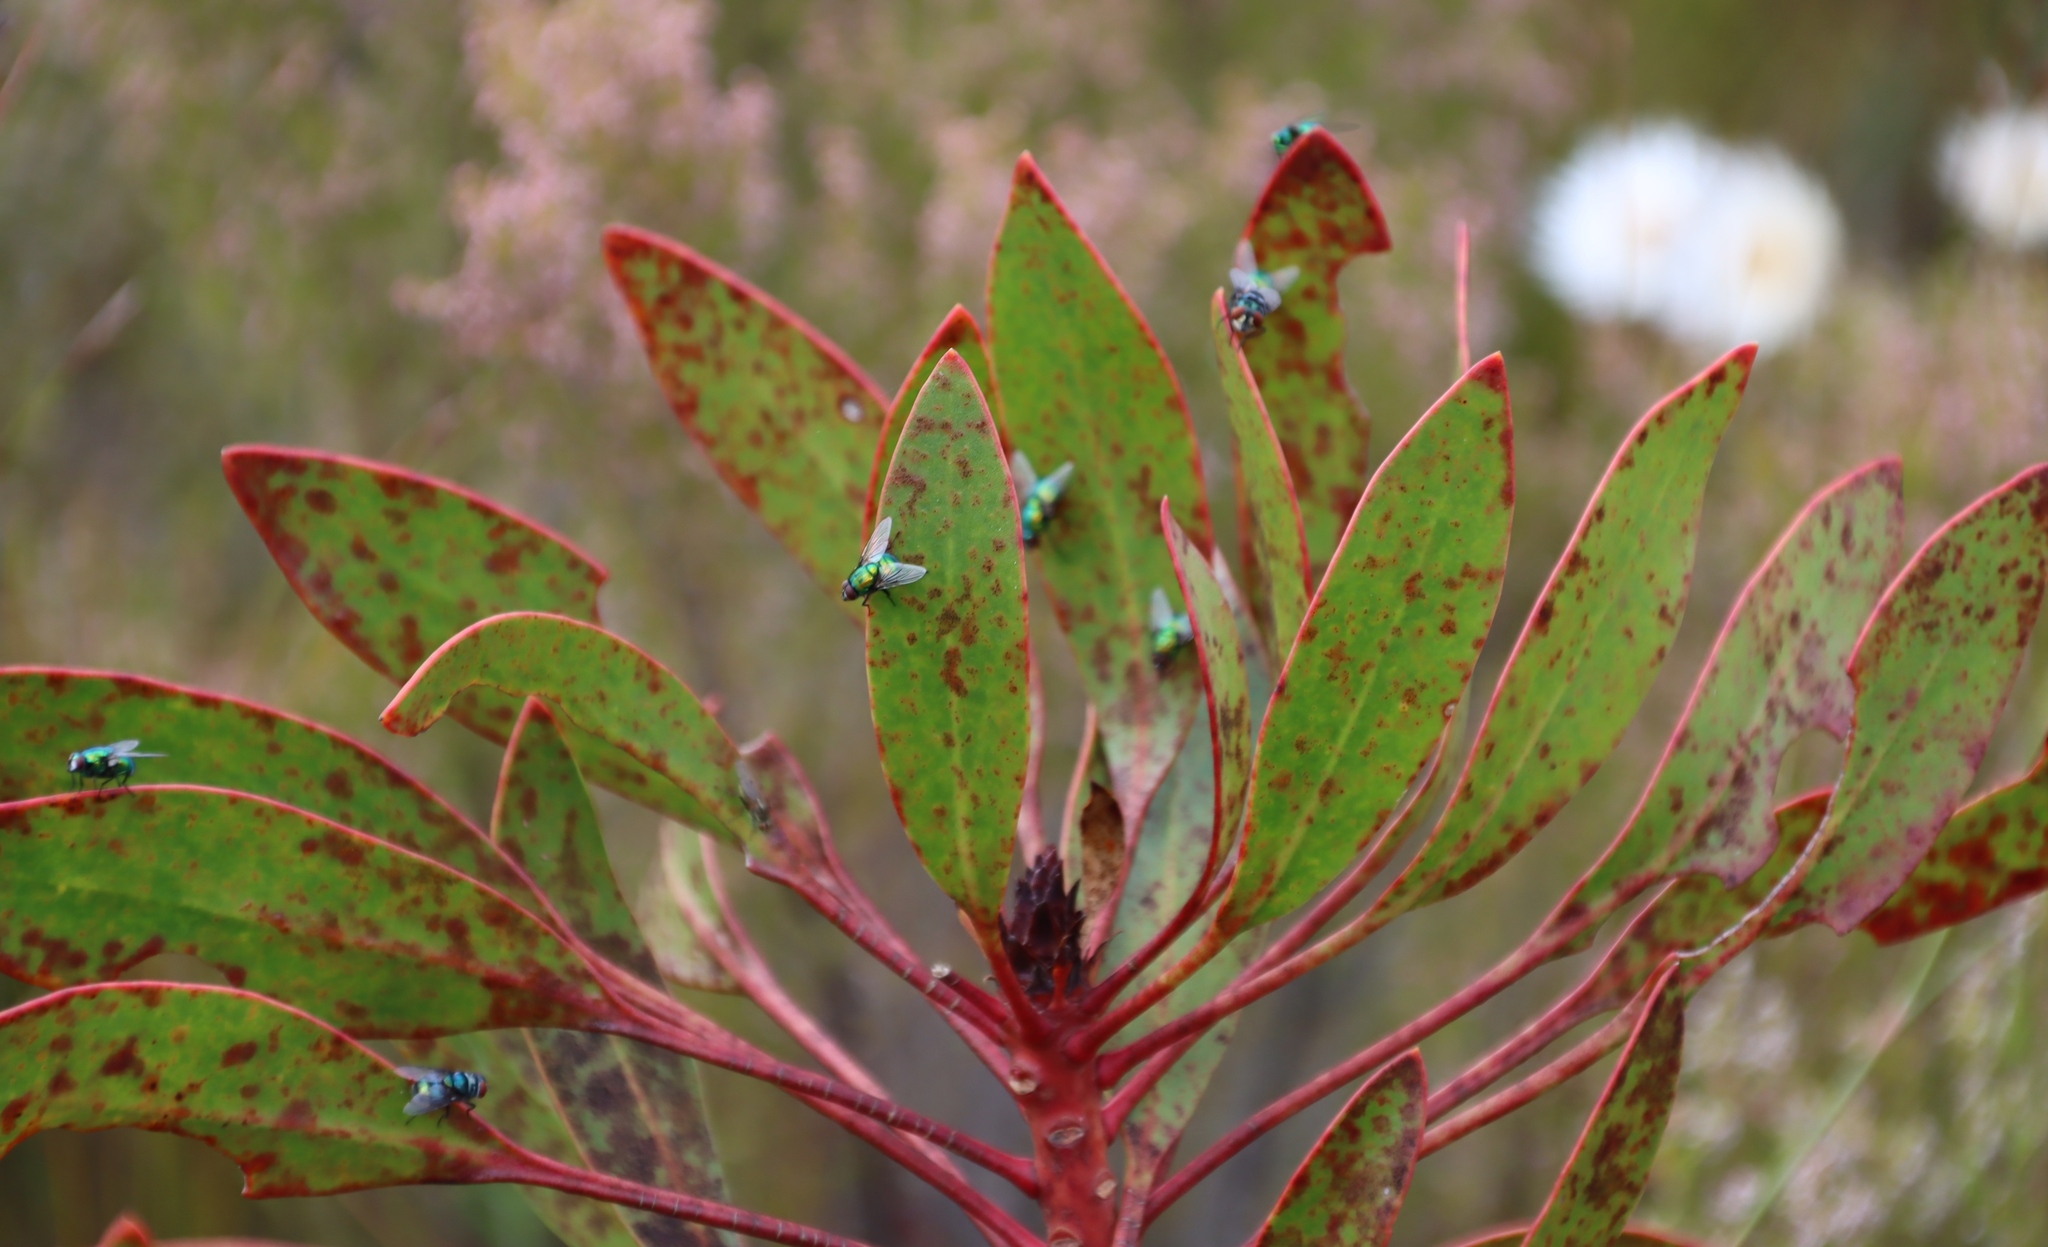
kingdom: Plantae
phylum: Tracheophyta
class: Magnoliopsida
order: Proteales
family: Proteaceae
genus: Protea
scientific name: Protea cynaroides
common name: King protea
